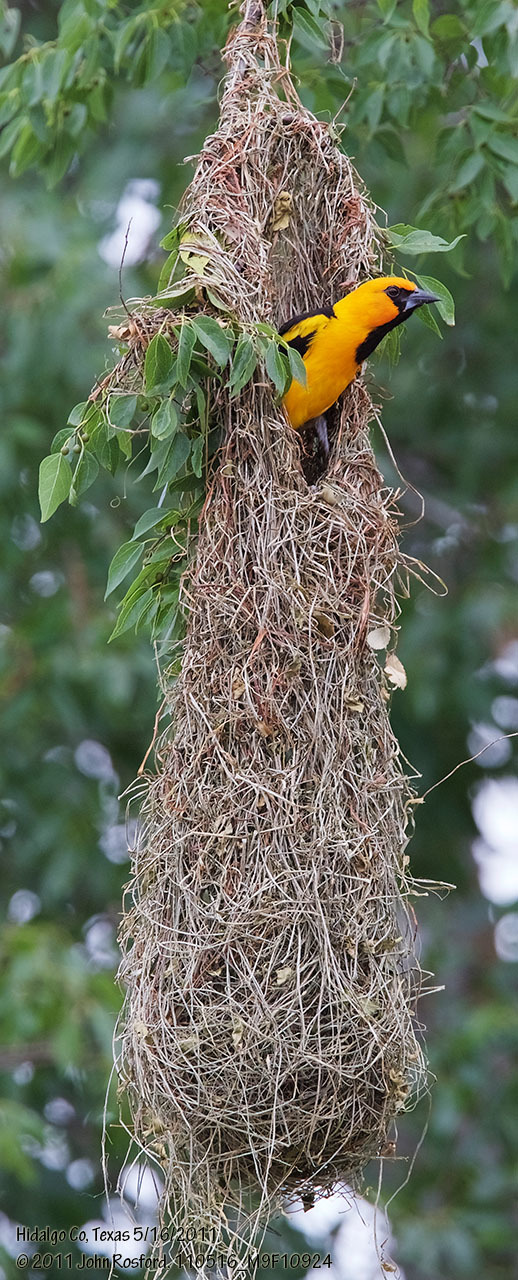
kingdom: Animalia
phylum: Chordata
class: Aves
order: Passeriformes
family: Icteridae
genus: Icterus
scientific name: Icterus gularis
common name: Altamira oriole
